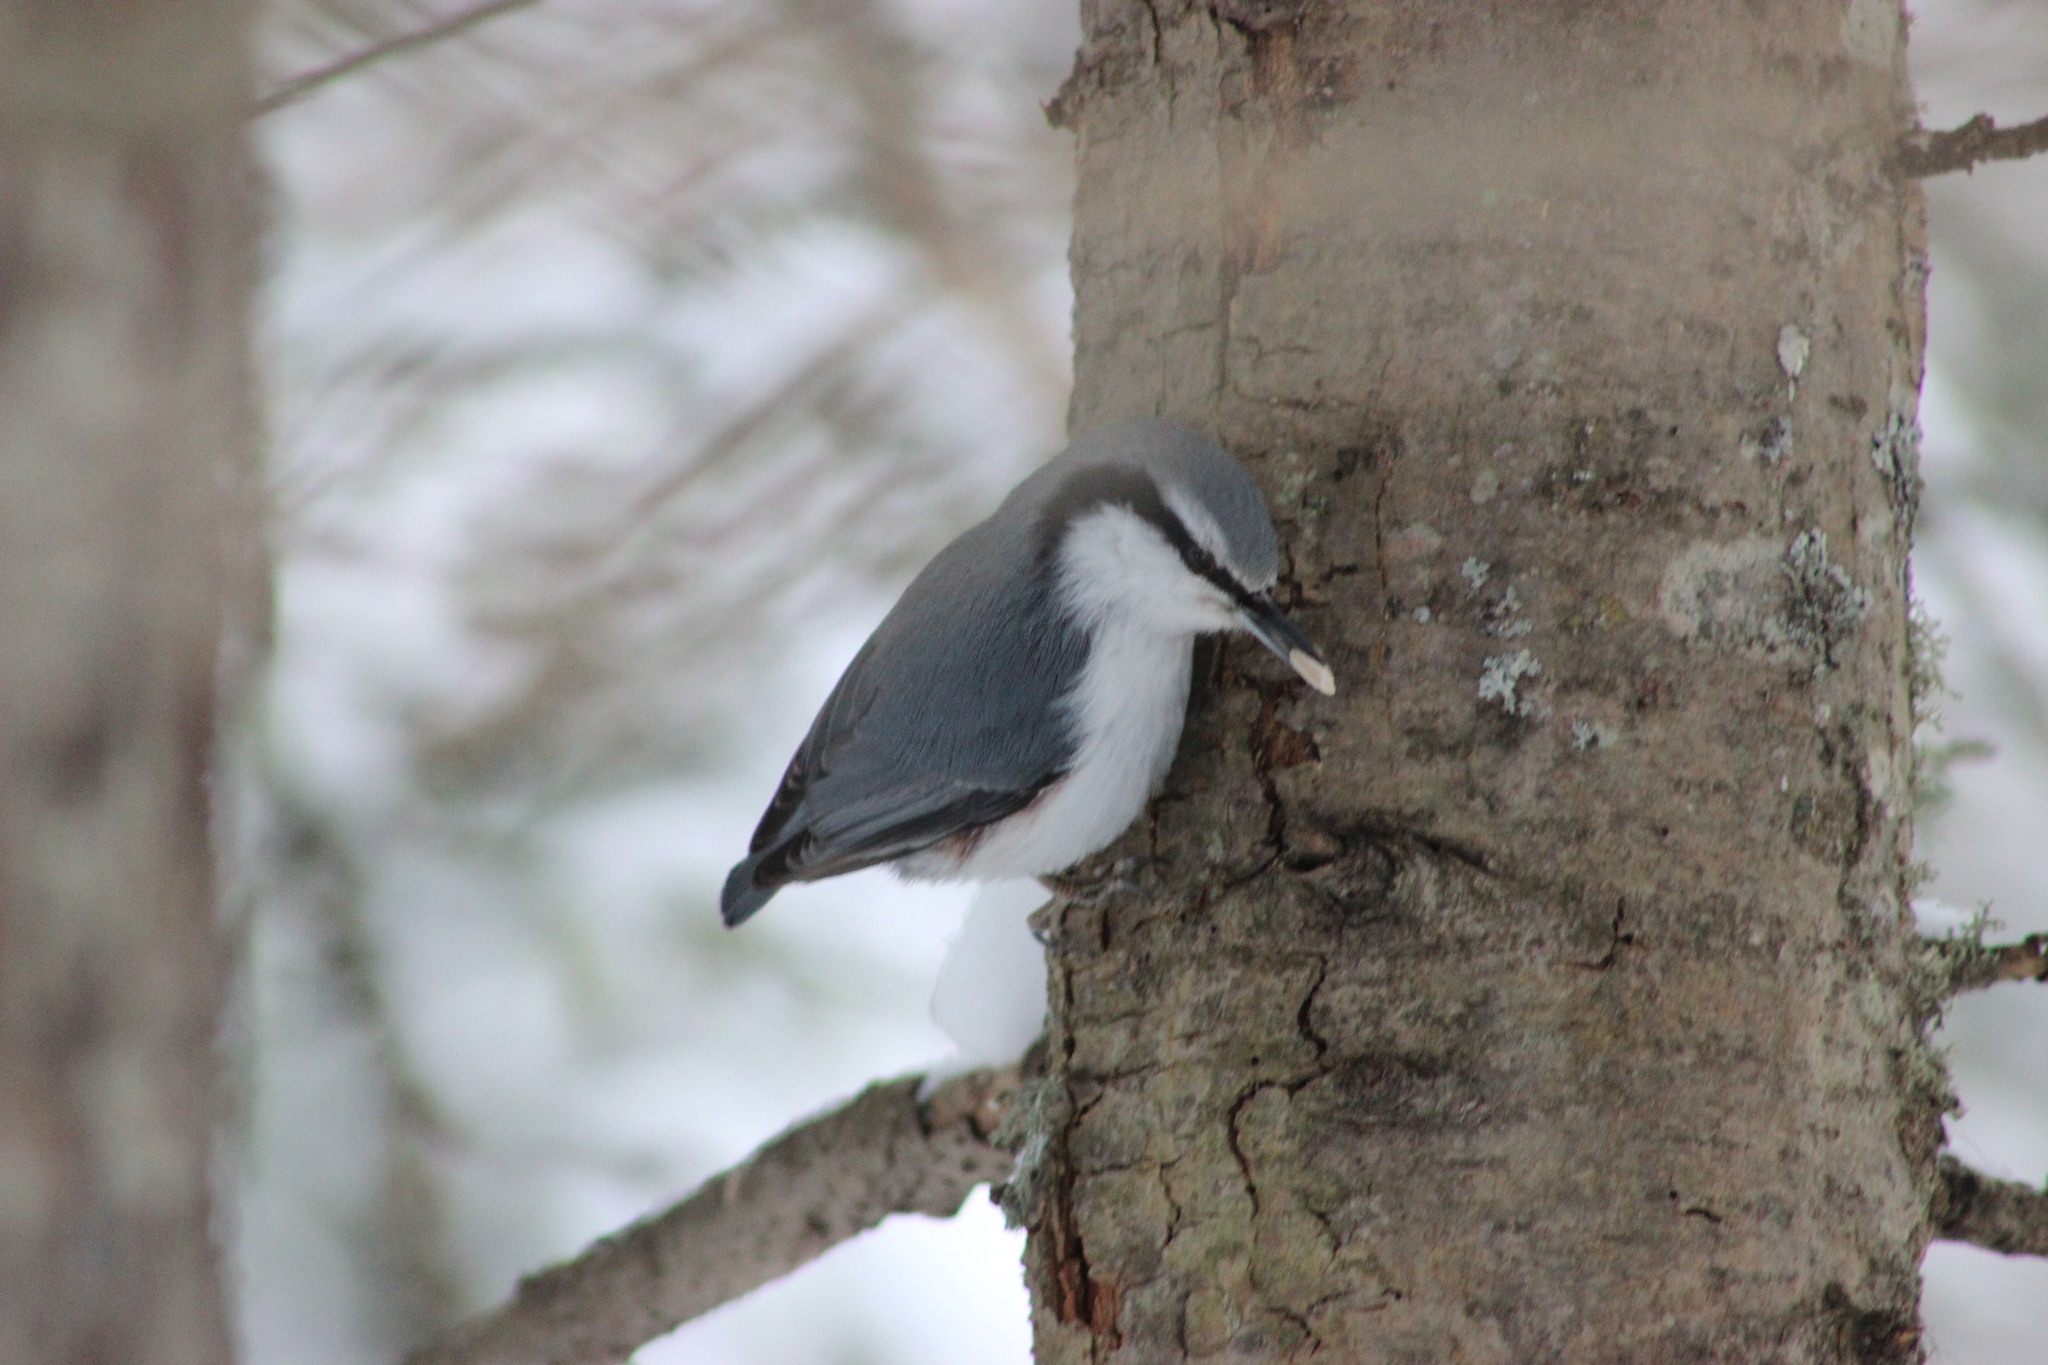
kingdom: Animalia
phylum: Chordata
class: Aves
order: Passeriformes
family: Sittidae
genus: Sitta
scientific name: Sitta europaea
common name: Eurasian nuthatch
